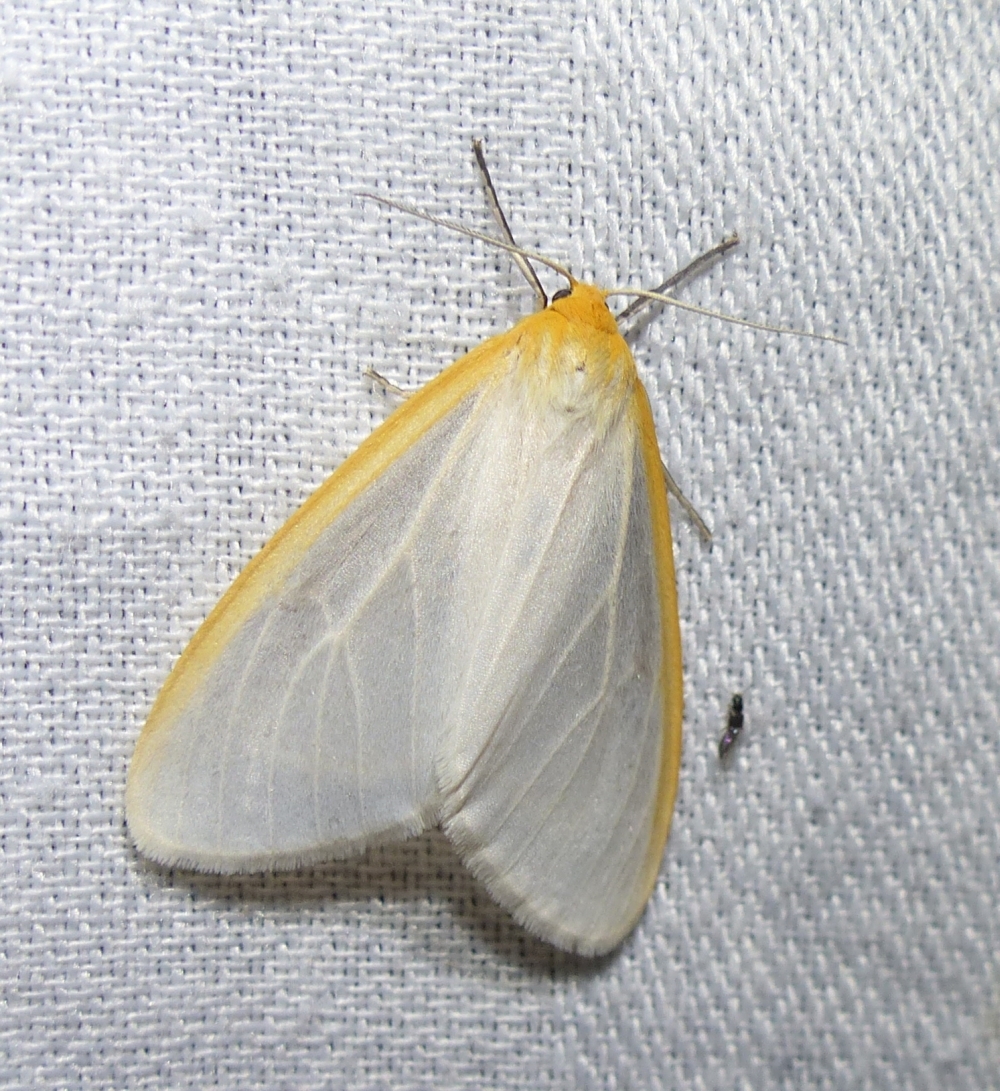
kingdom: Animalia
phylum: Arthropoda
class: Insecta
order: Lepidoptera
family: Erebidae
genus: Cycnia
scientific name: Cycnia tenera
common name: Delicate cycnia moth
